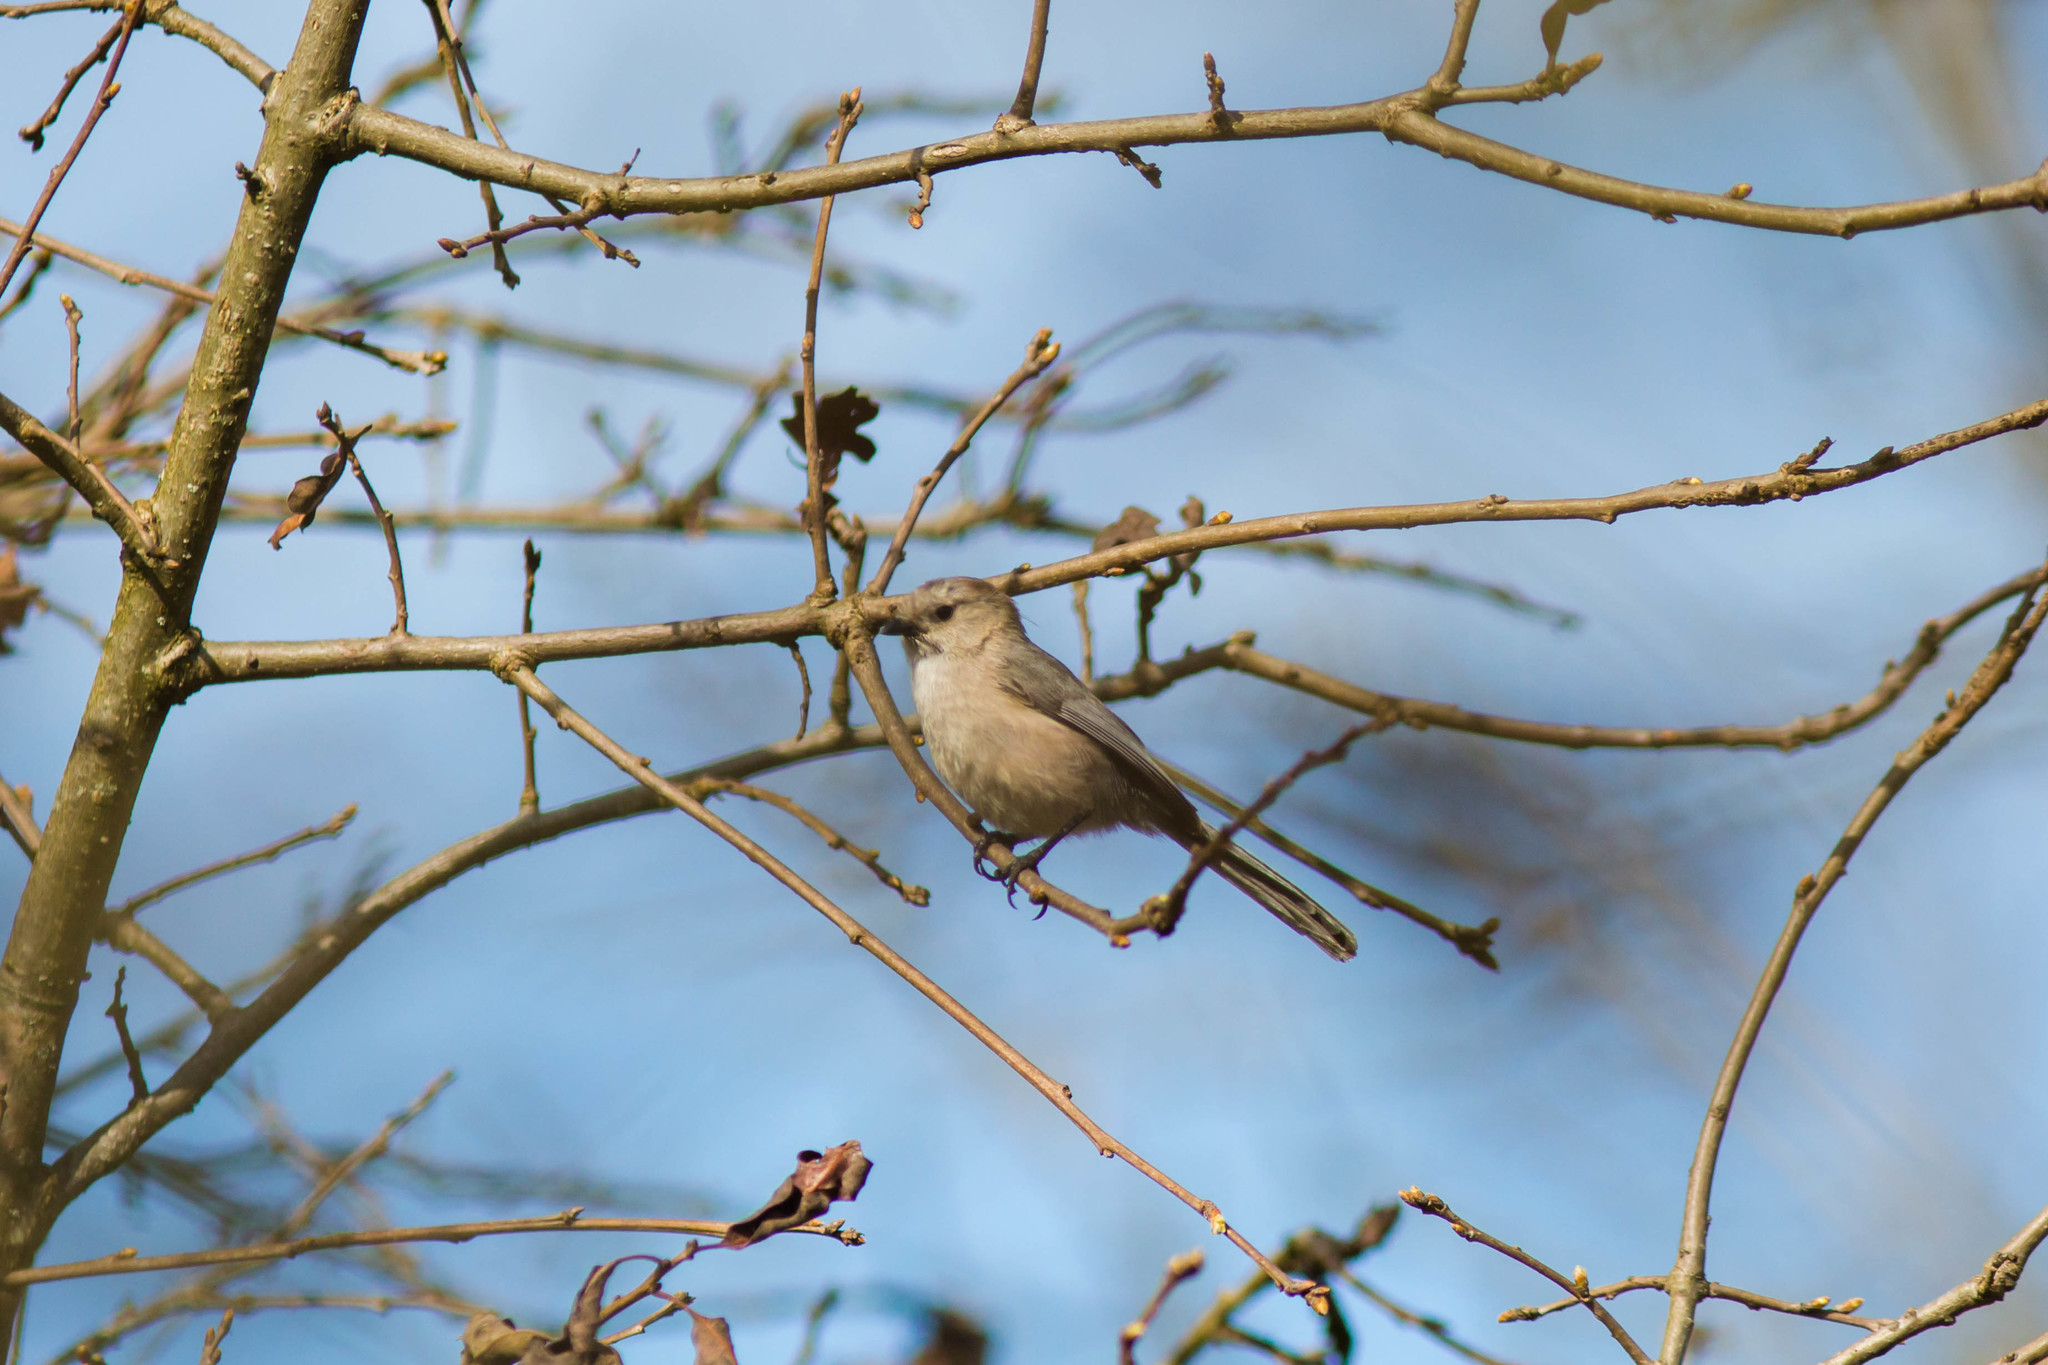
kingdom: Animalia
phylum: Chordata
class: Aves
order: Passeriformes
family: Aegithalidae
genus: Psaltriparus
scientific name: Psaltriparus minimus
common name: American bushtit
